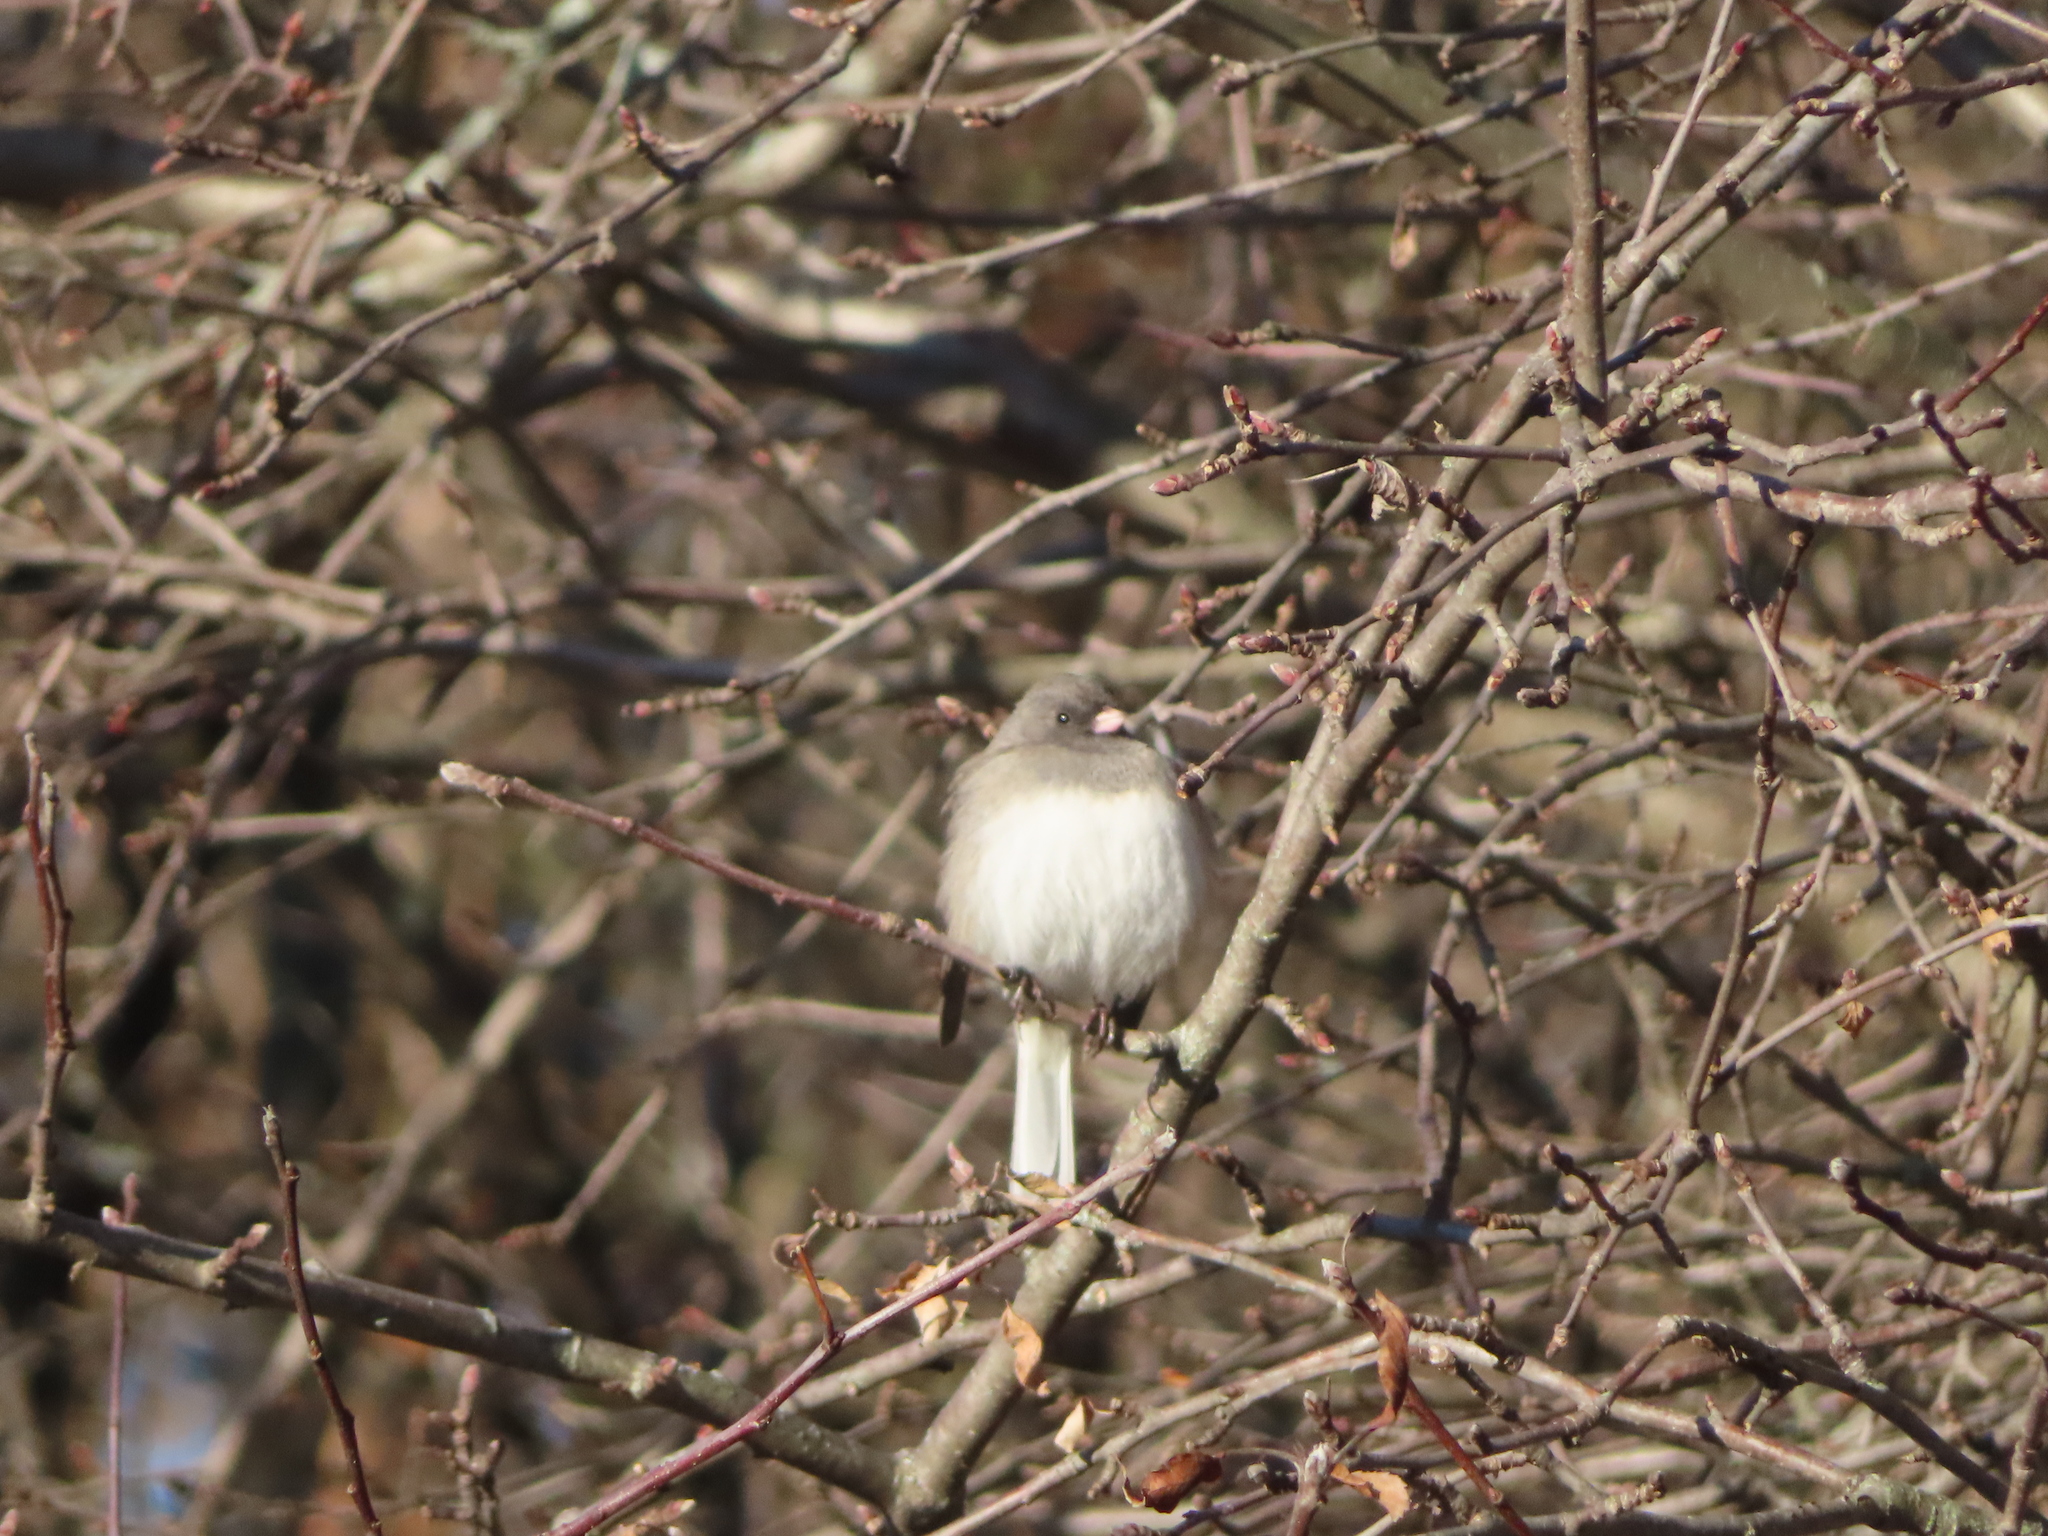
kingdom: Animalia
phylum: Chordata
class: Aves
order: Passeriformes
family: Passerellidae
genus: Junco
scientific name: Junco hyemalis
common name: Dark-eyed junco
